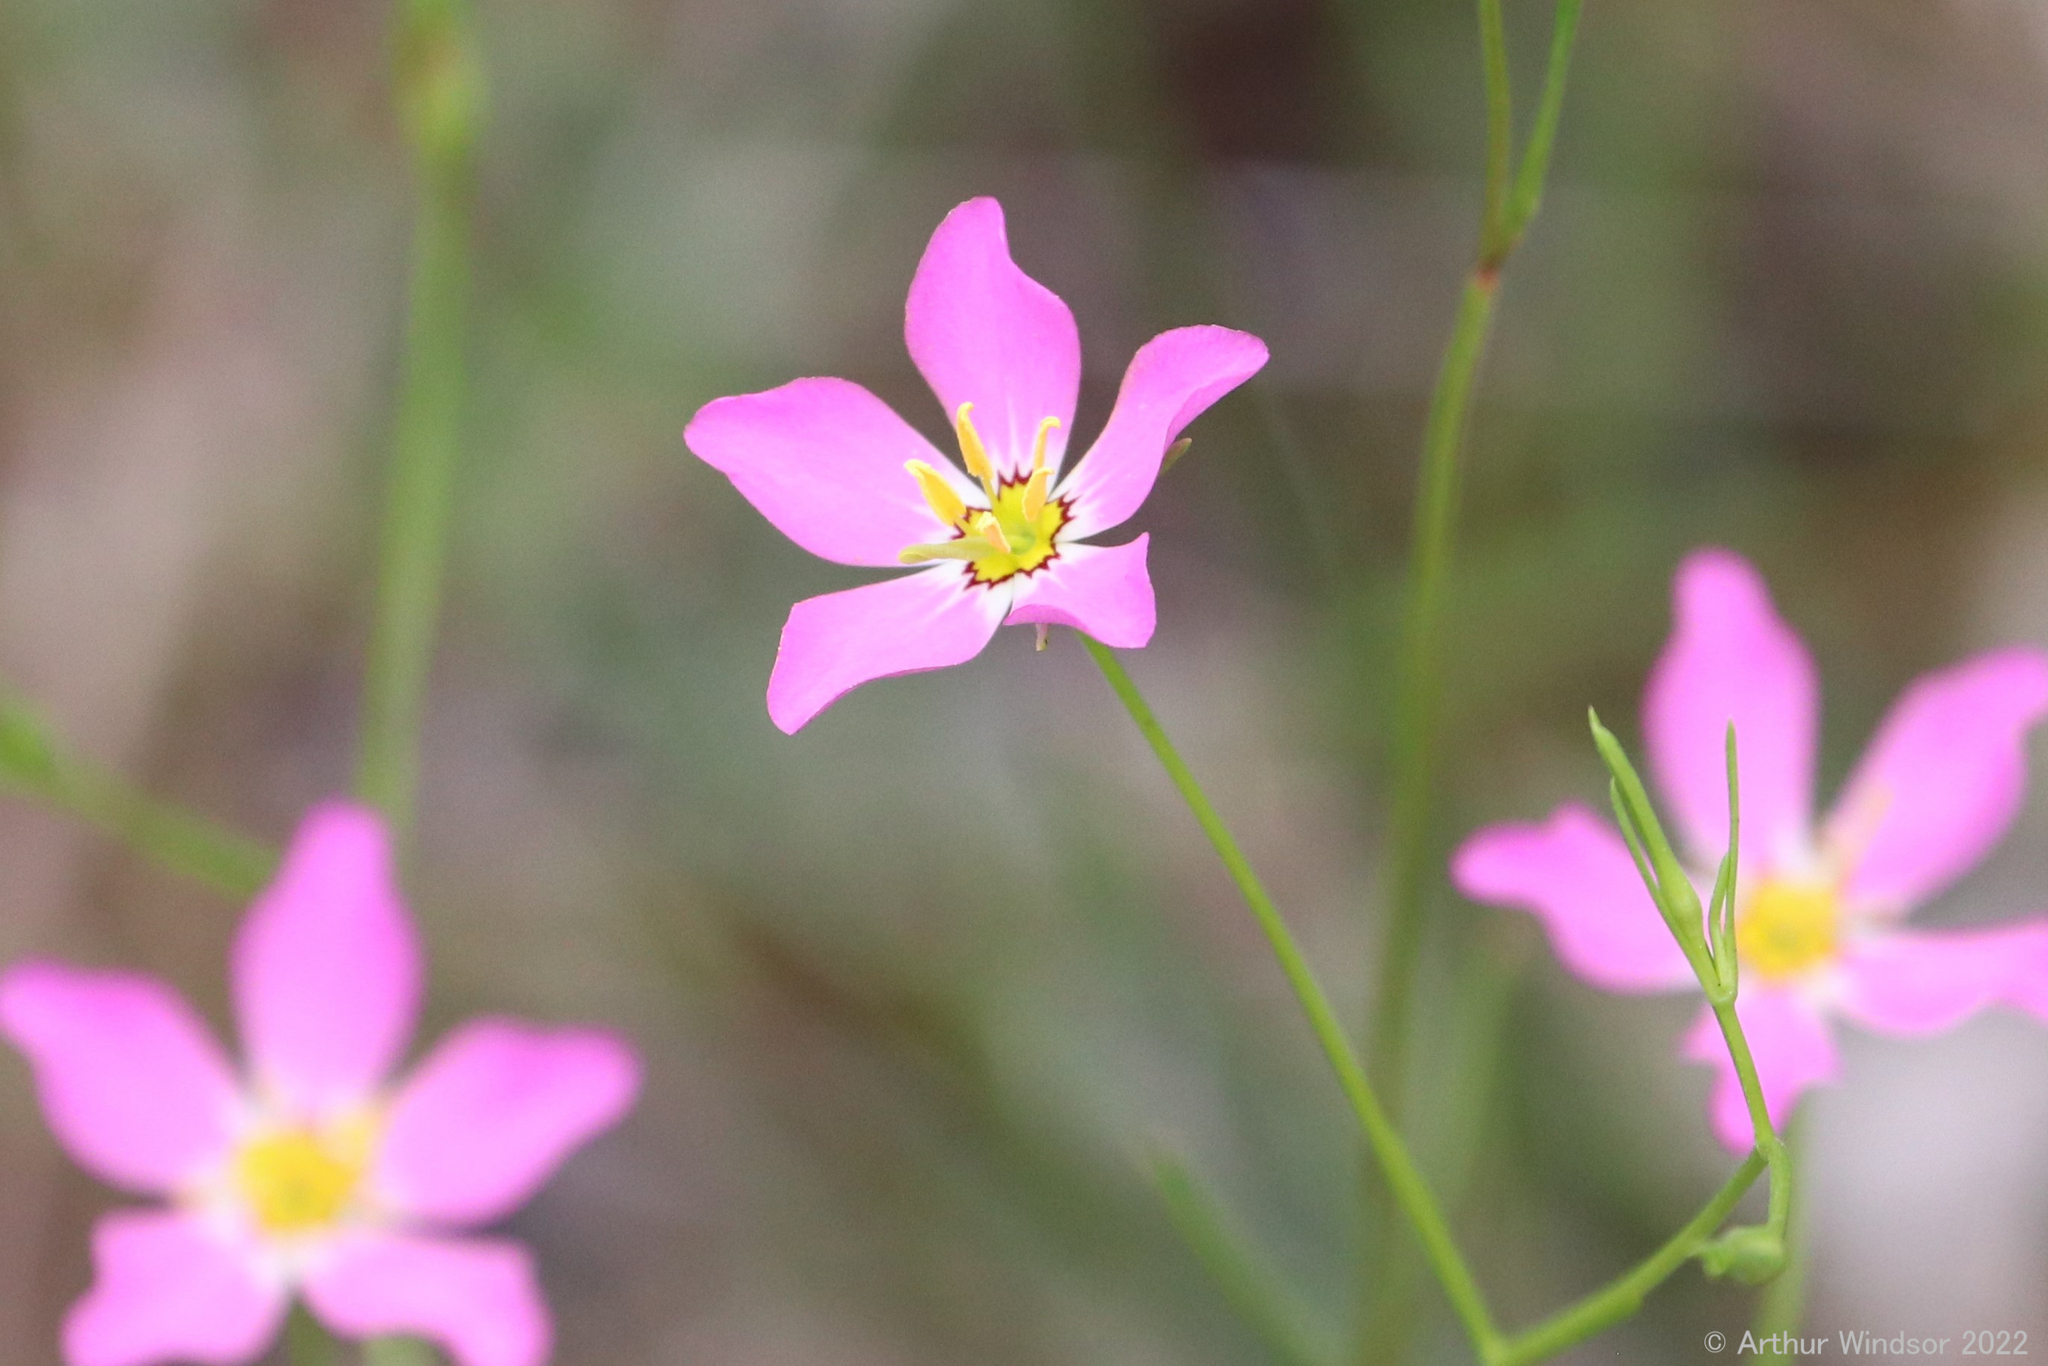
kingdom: Plantae
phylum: Tracheophyta
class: Magnoliopsida
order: Gentianales
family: Gentianaceae
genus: Sabatia
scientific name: Sabatia stellaris
